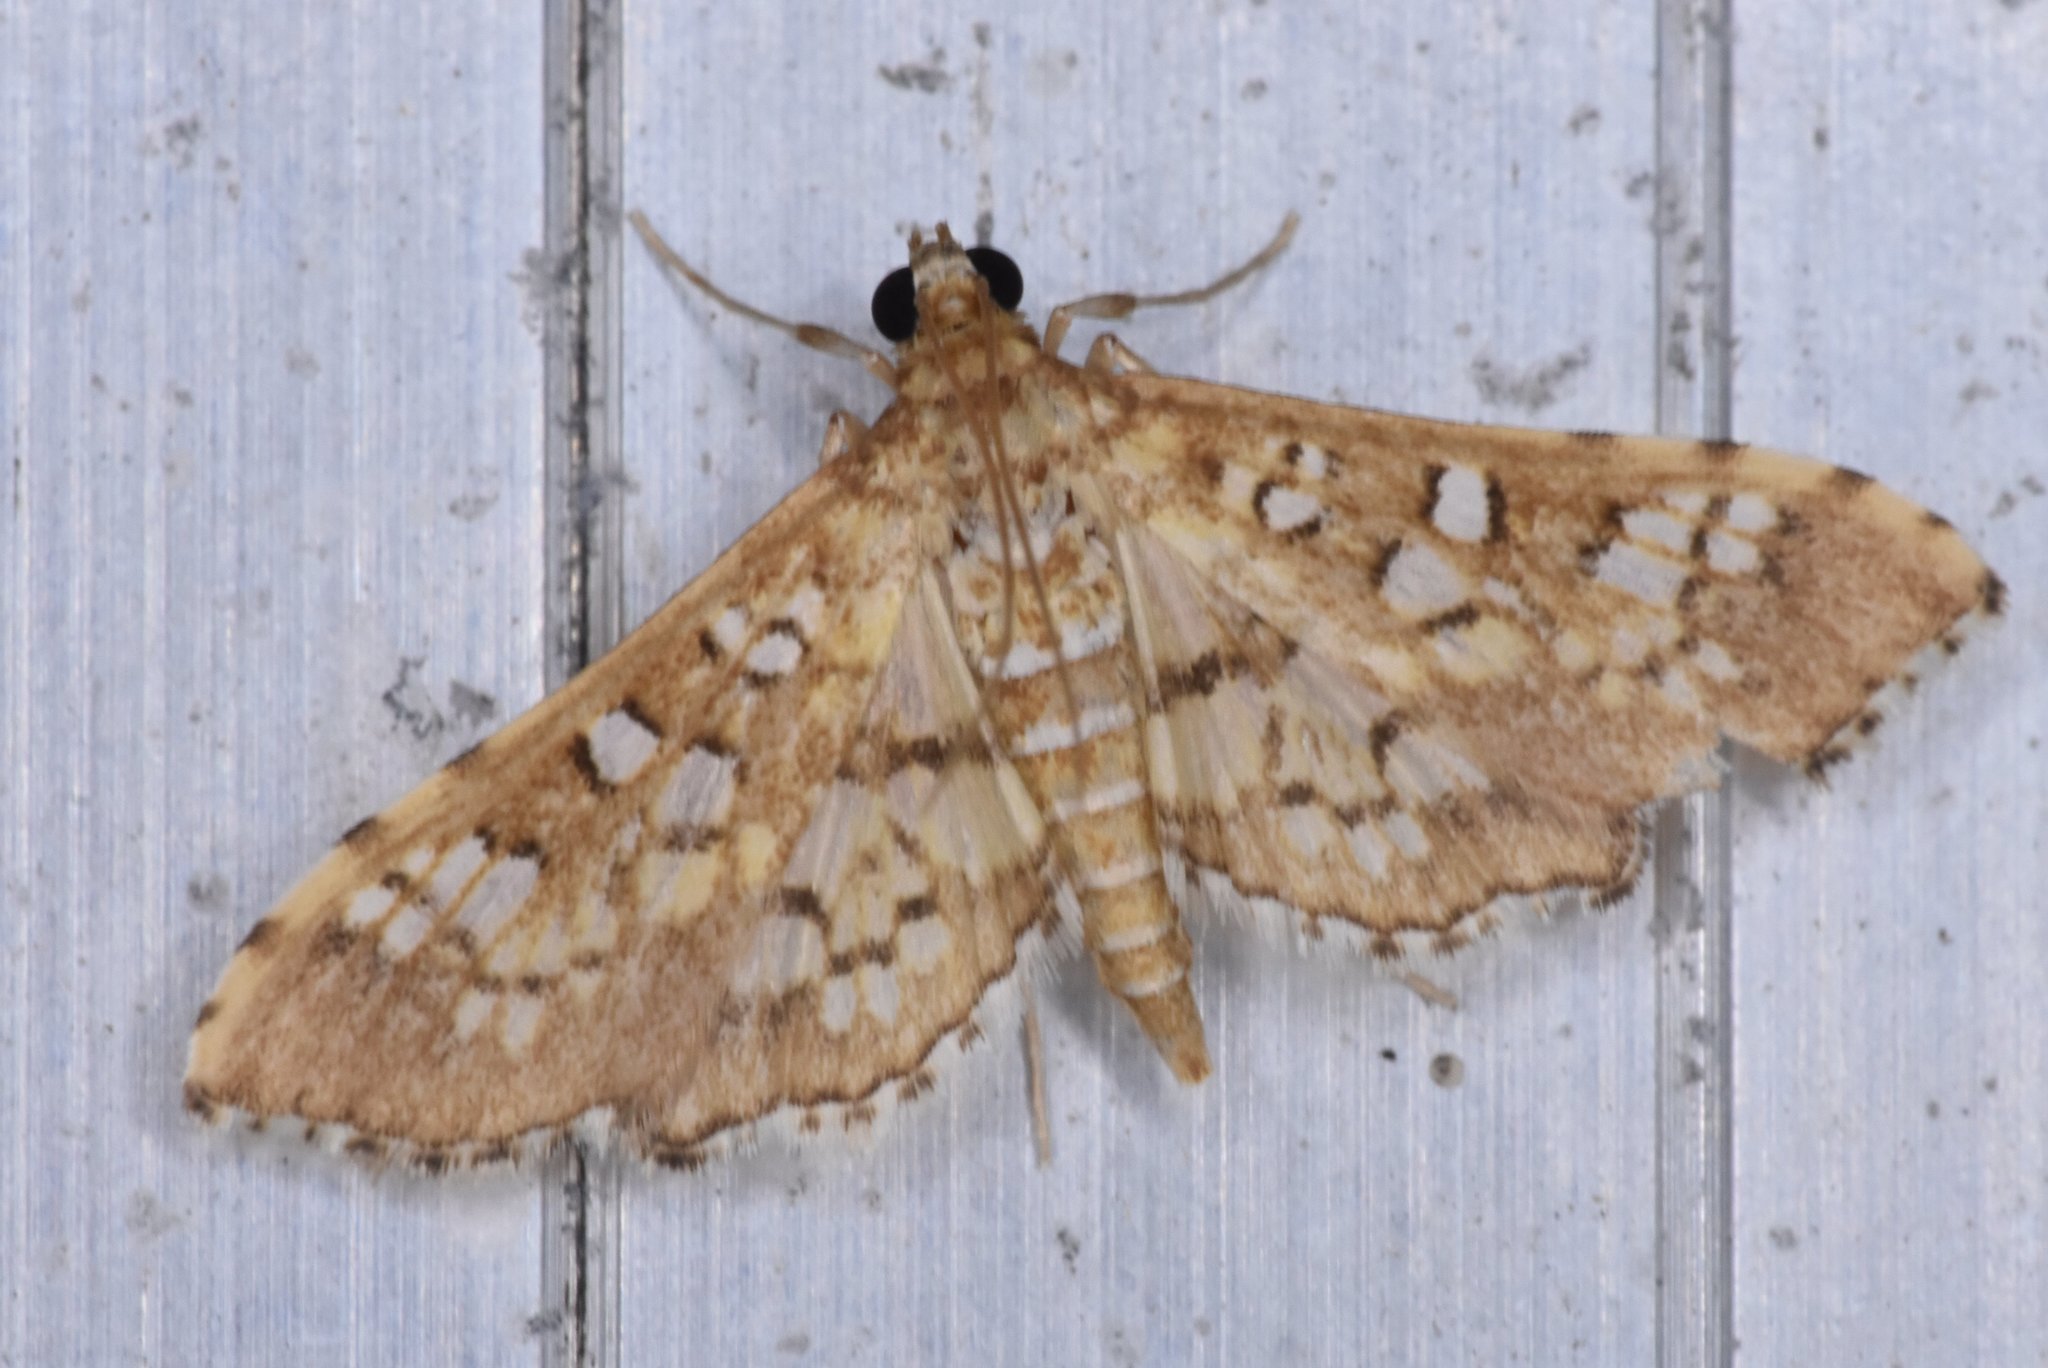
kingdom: Animalia
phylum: Arthropoda
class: Insecta
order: Lepidoptera
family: Crambidae
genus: Samea
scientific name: Samea ecclesialis
